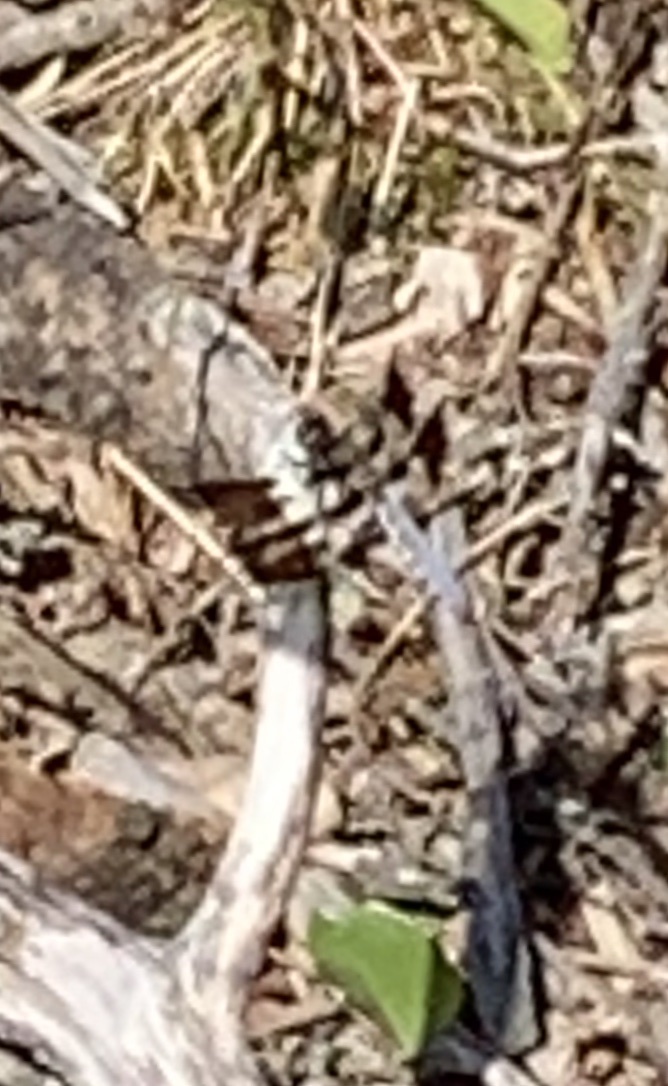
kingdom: Animalia
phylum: Arthropoda
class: Insecta
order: Odonata
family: Libellulidae
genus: Plathemis
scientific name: Plathemis lydia
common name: Common whitetail
